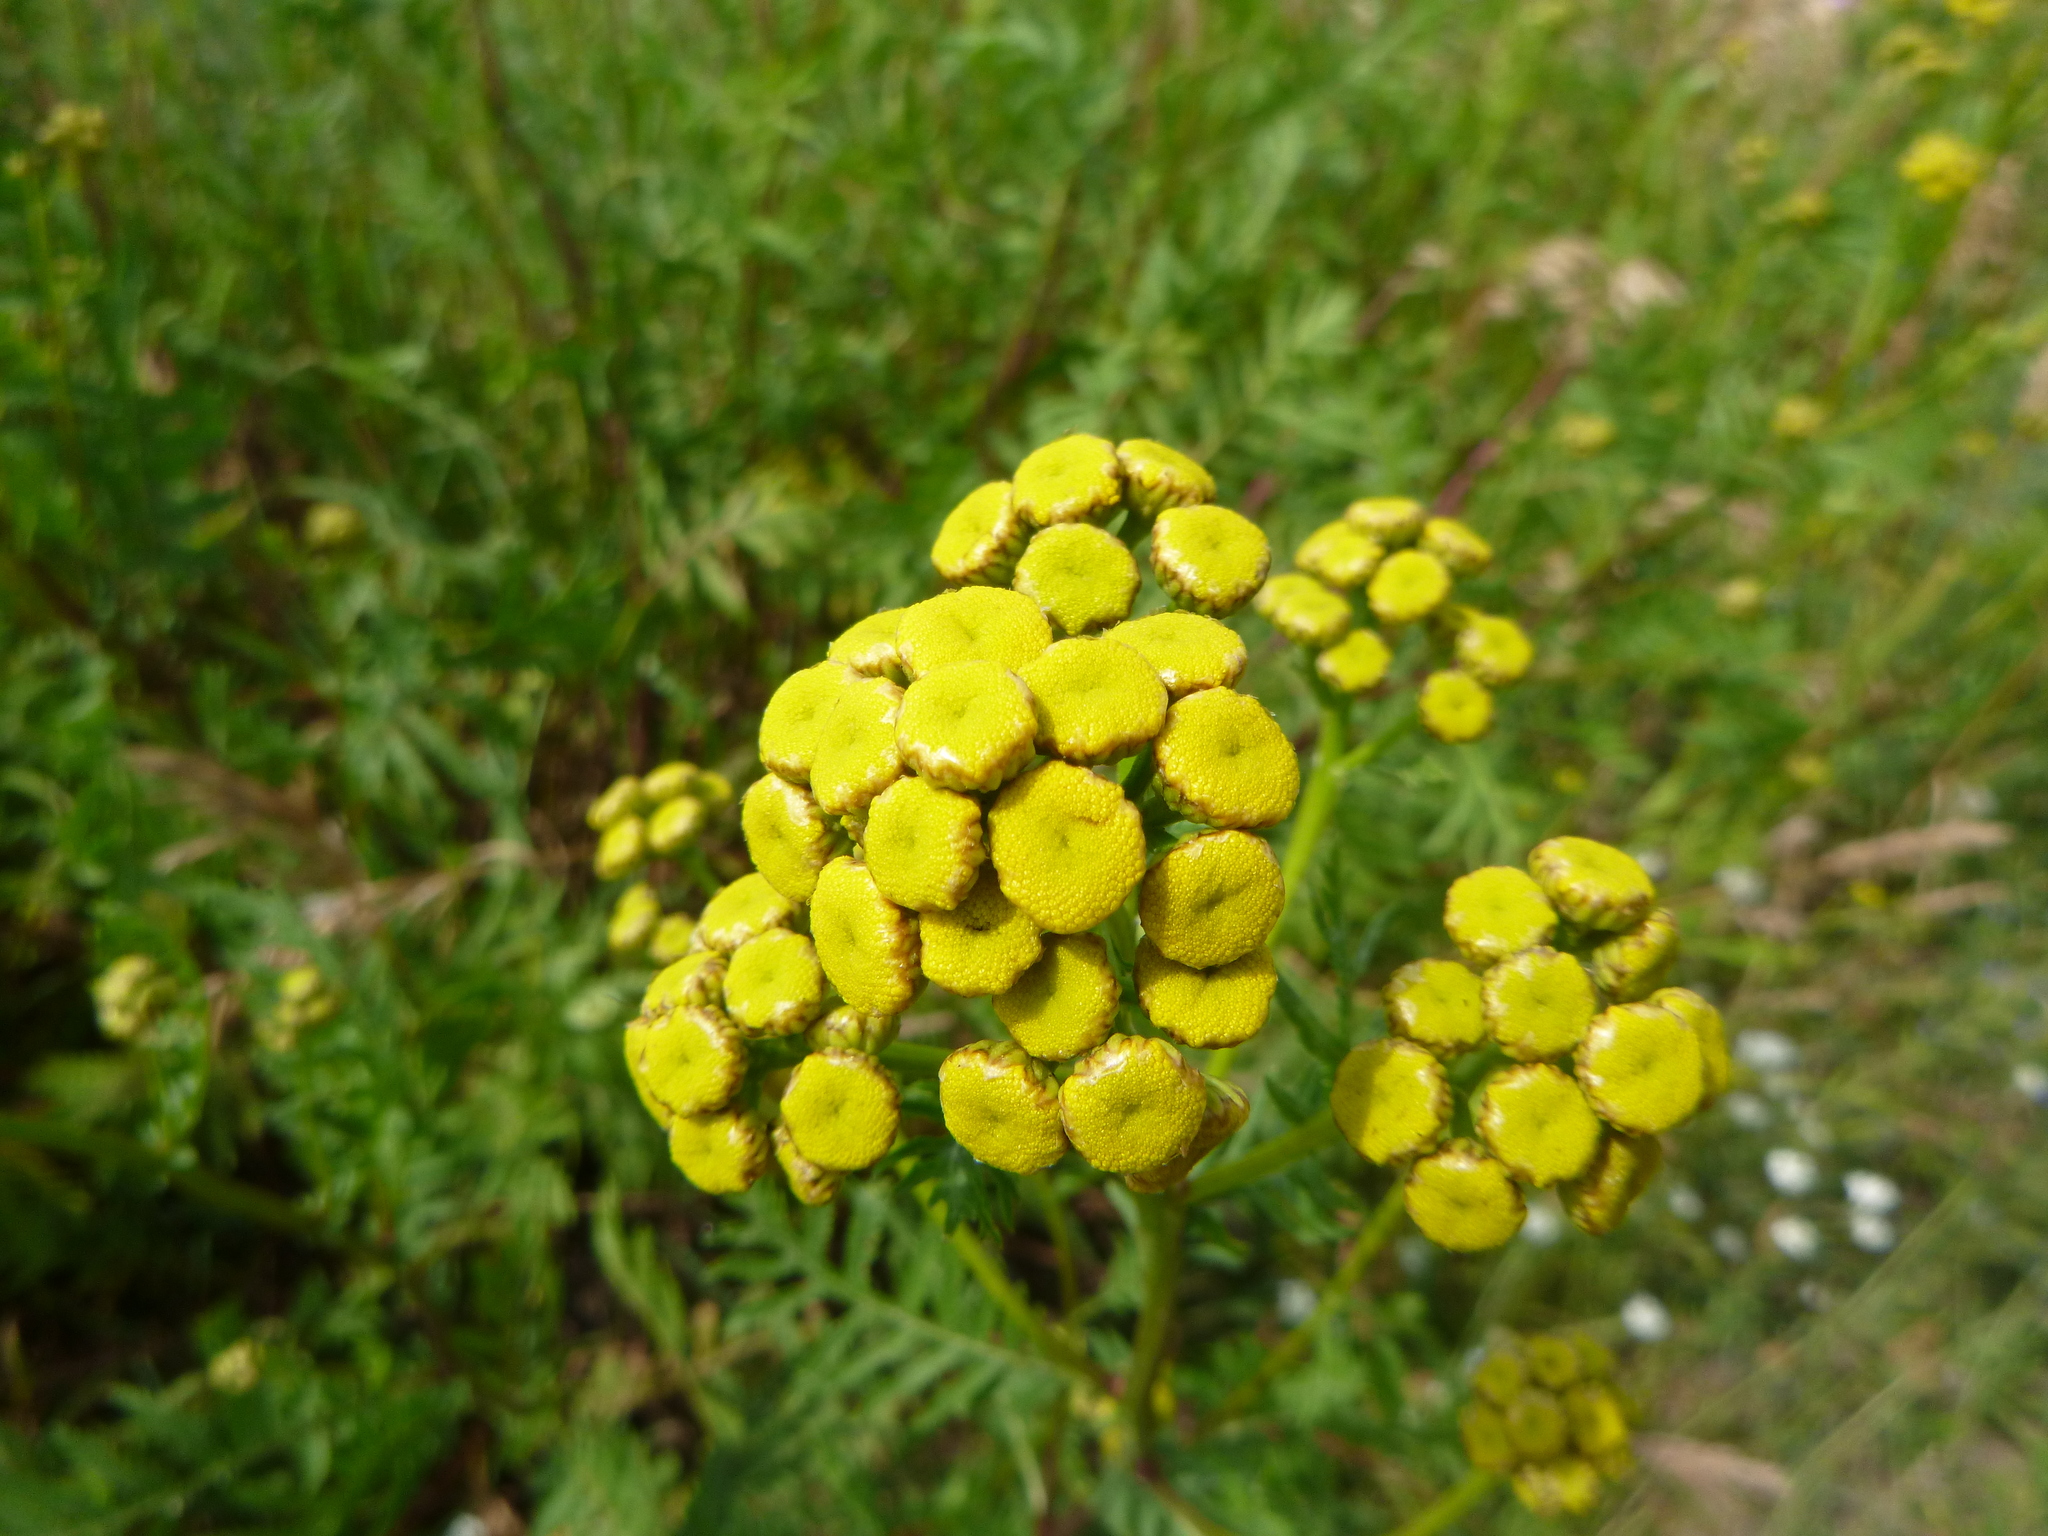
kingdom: Plantae
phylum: Tracheophyta
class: Magnoliopsida
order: Asterales
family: Asteraceae
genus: Tanacetum
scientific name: Tanacetum vulgare
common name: Common tansy
